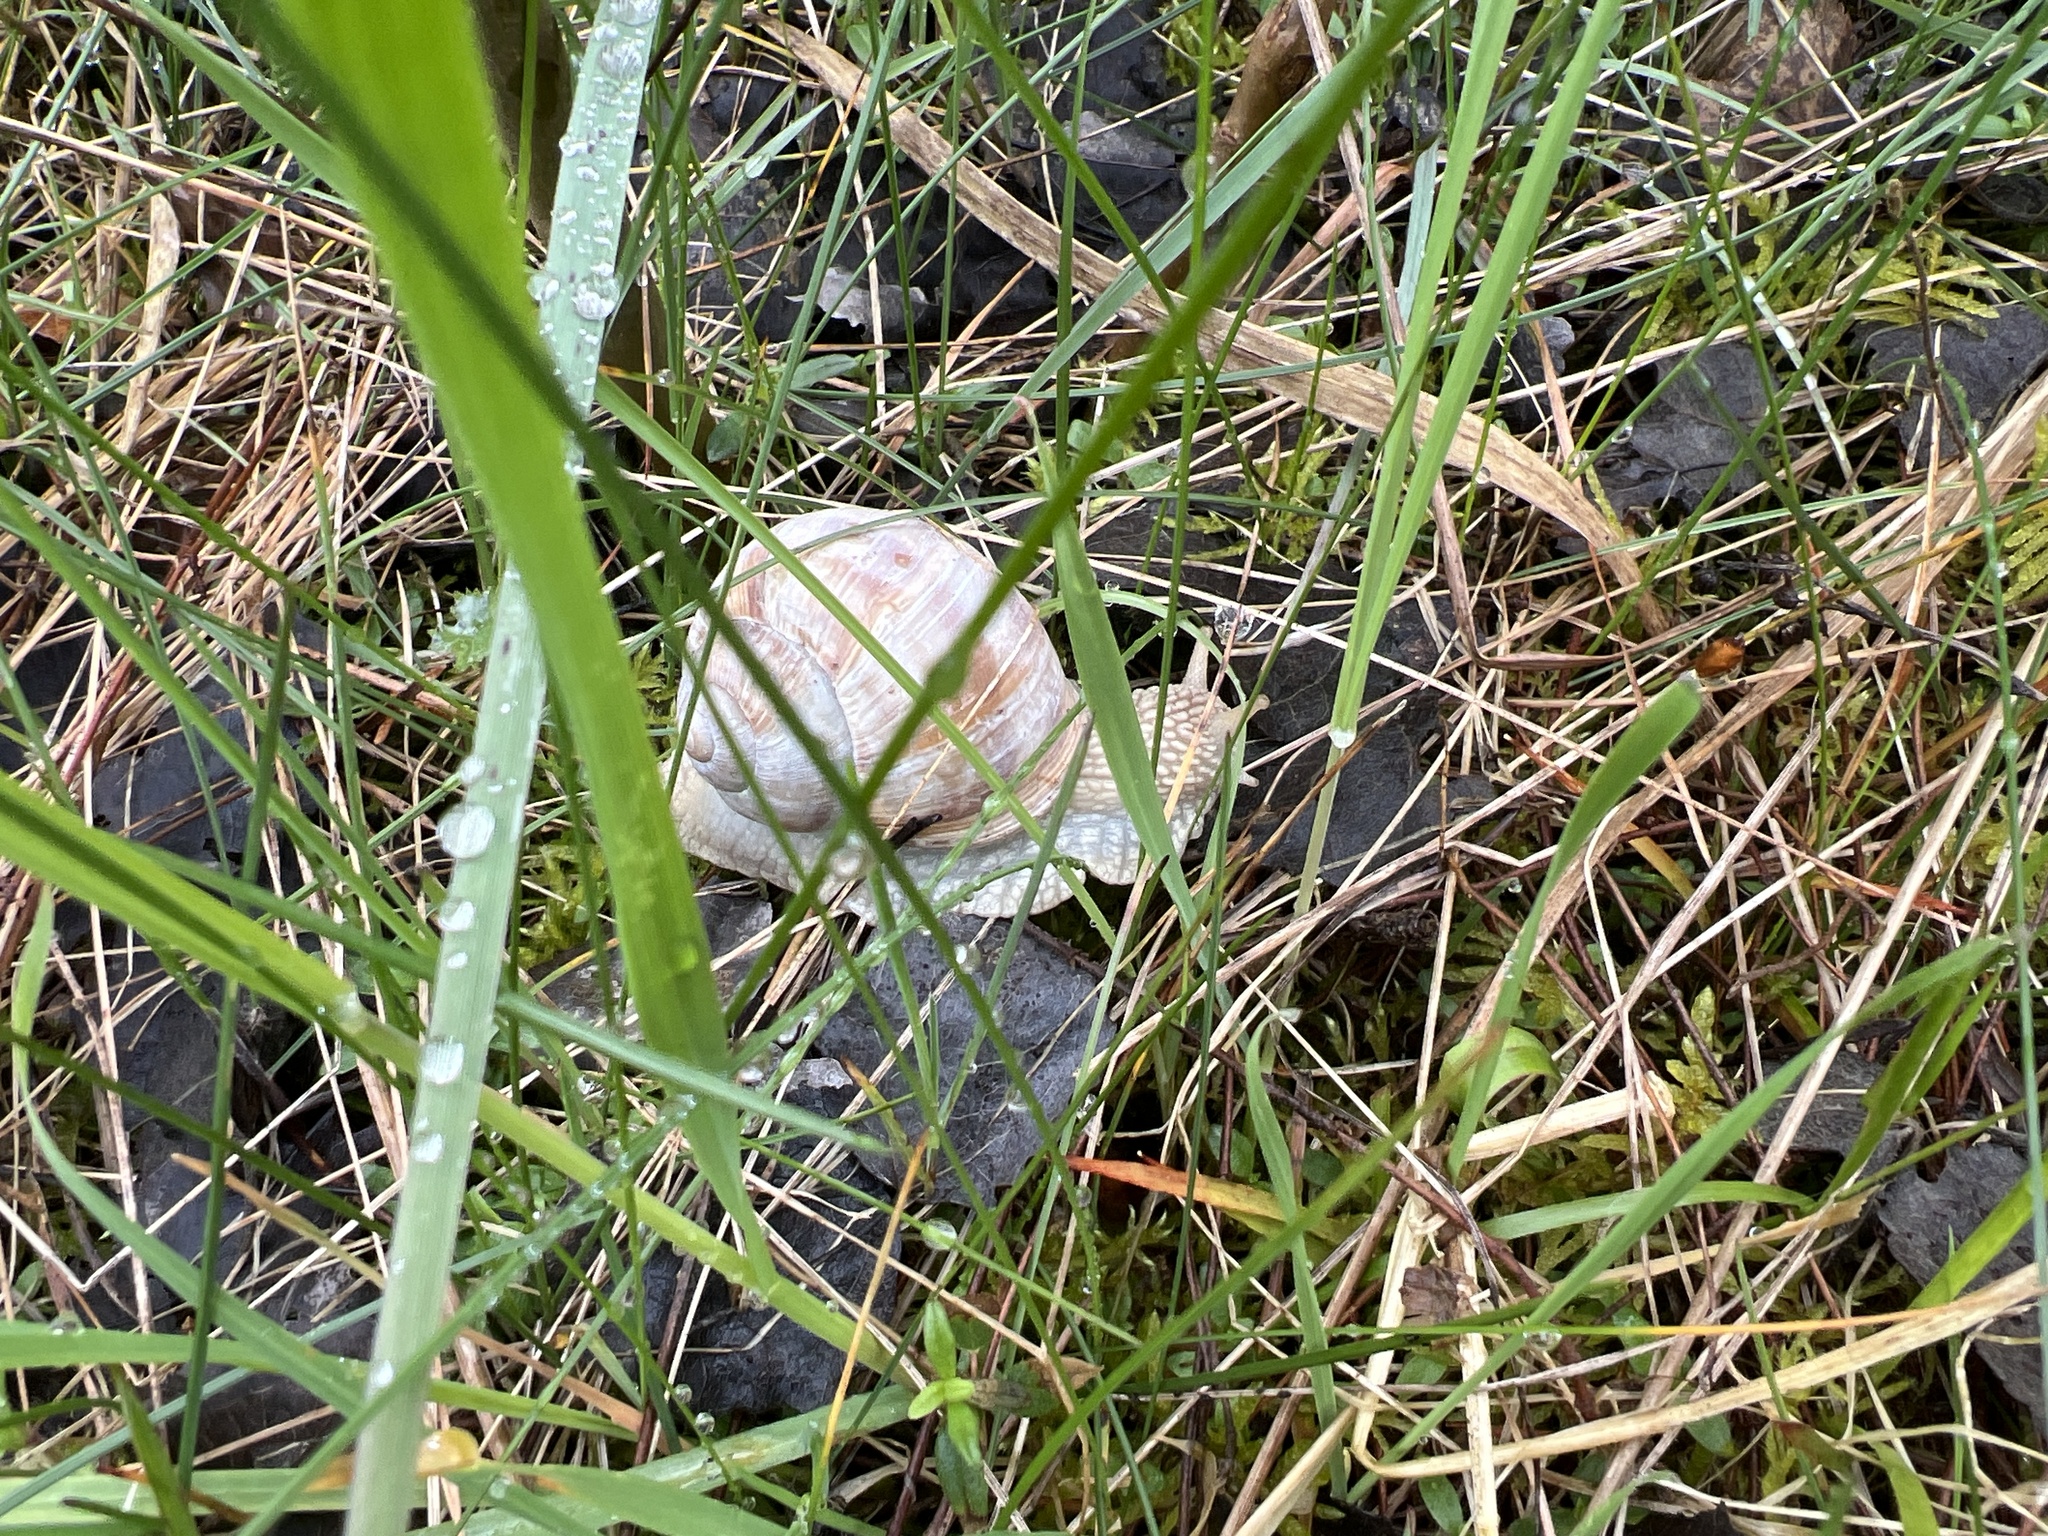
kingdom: Animalia
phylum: Mollusca
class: Gastropoda
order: Stylommatophora
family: Helicidae
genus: Helix
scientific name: Helix pomatia
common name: Roman snail
